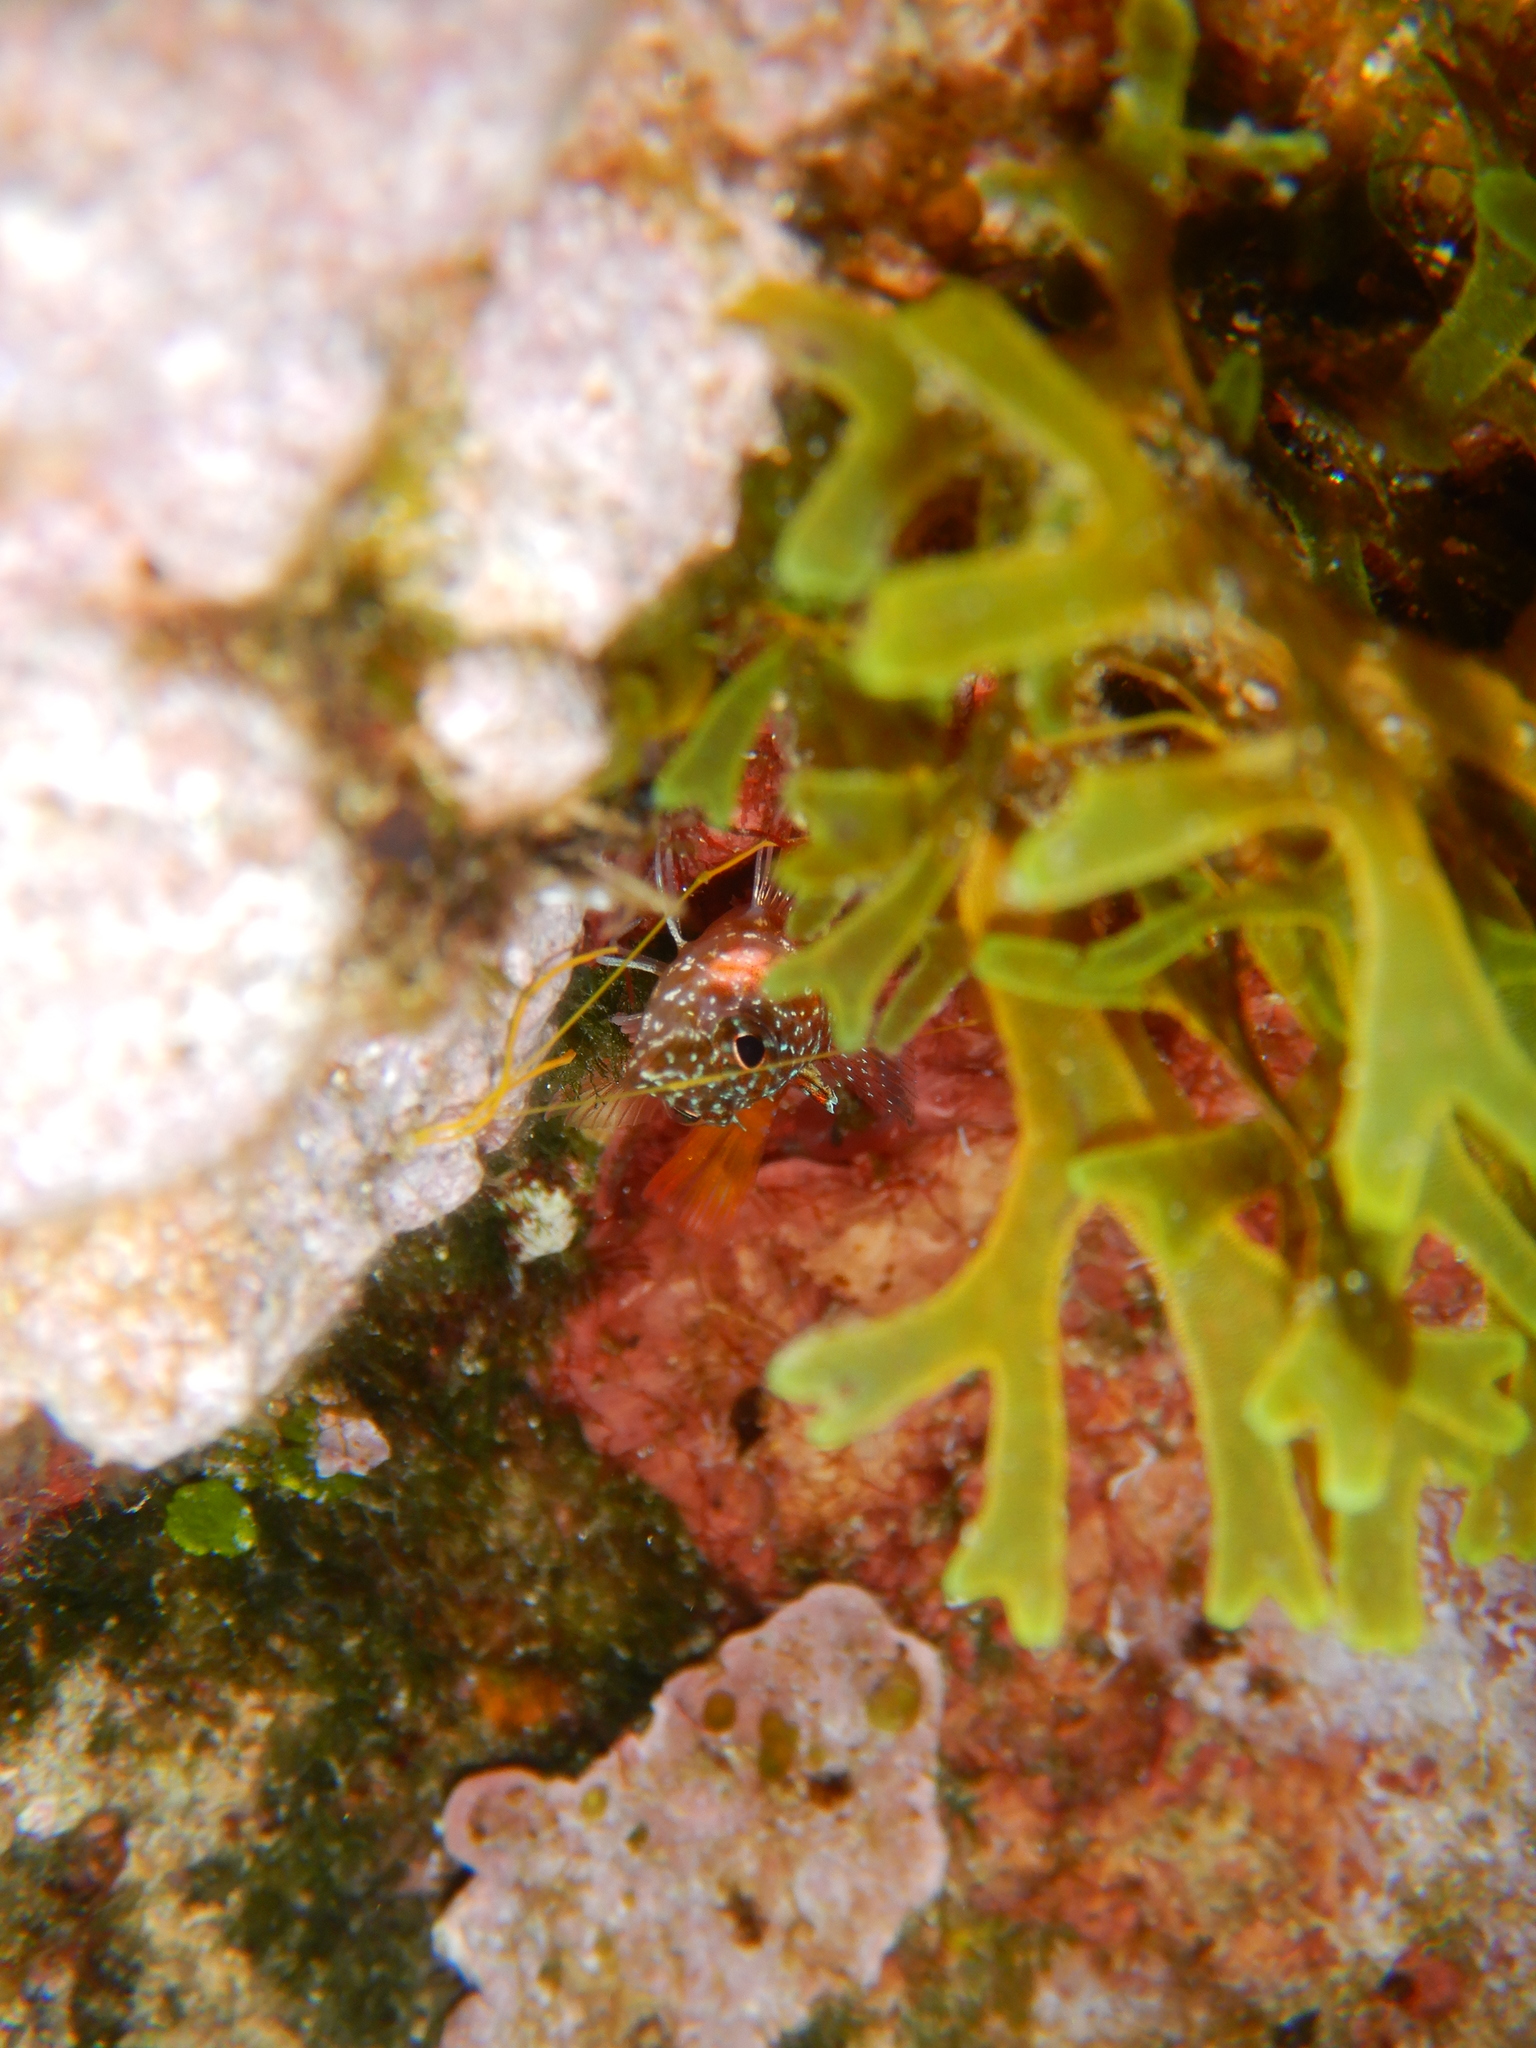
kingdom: Animalia
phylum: Chordata
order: Perciformes
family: Tripterygiidae
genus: Tripterygion
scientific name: Tripterygion melanurum
